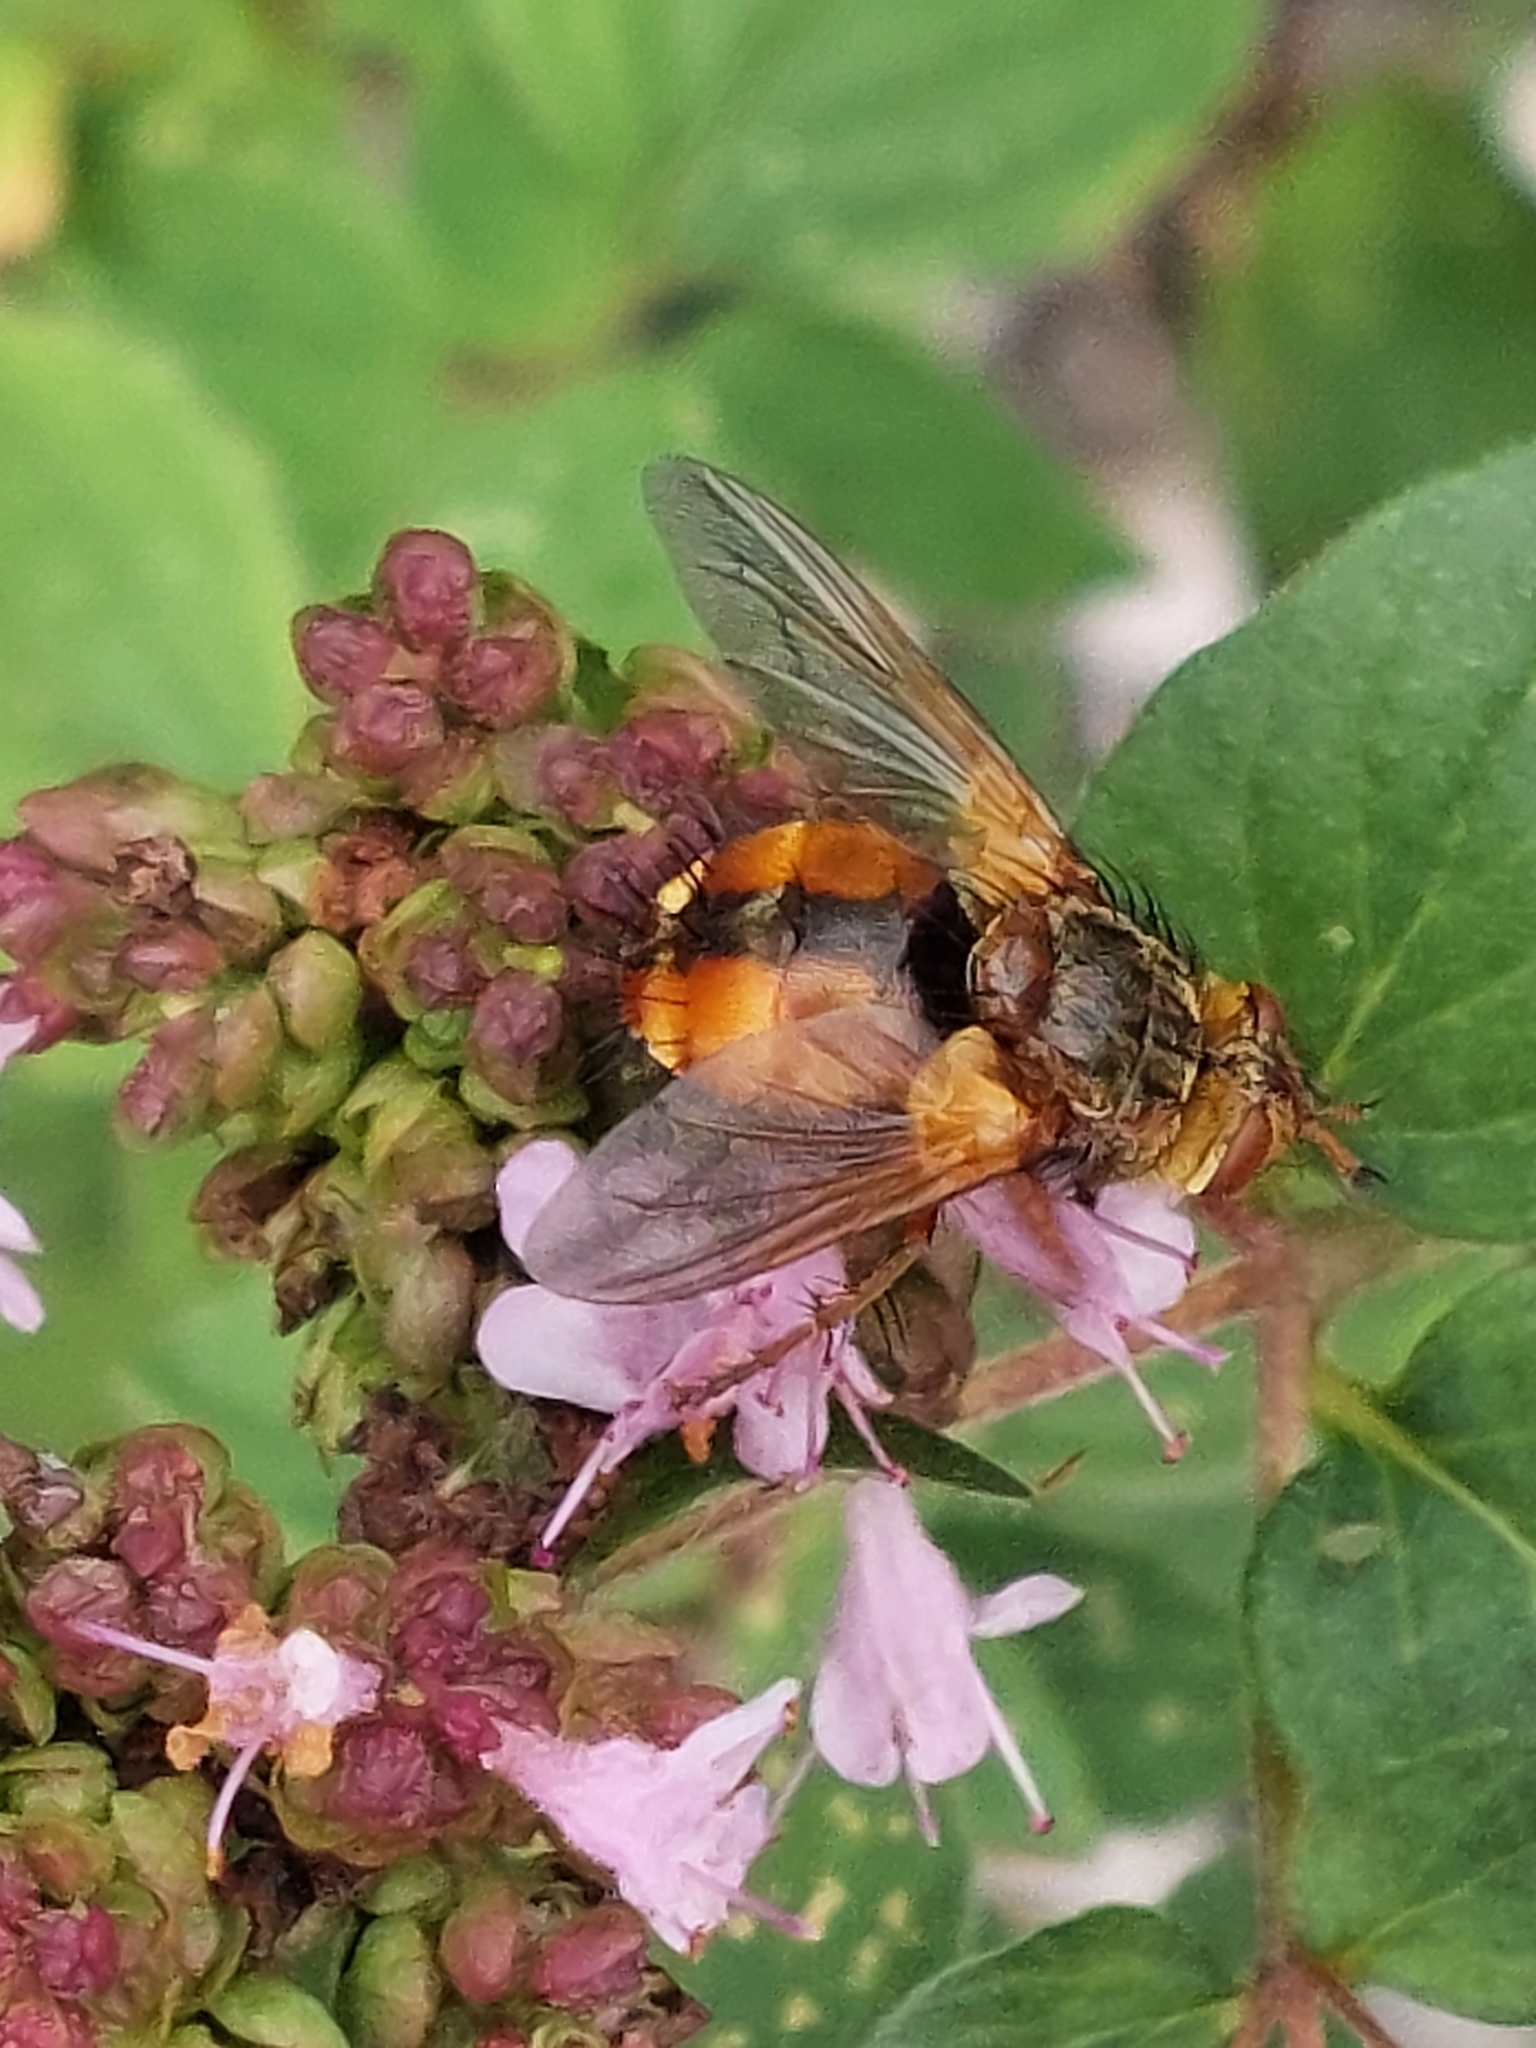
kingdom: Animalia
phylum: Arthropoda
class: Insecta
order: Diptera
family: Tachinidae
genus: Tachina
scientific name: Tachina fera
